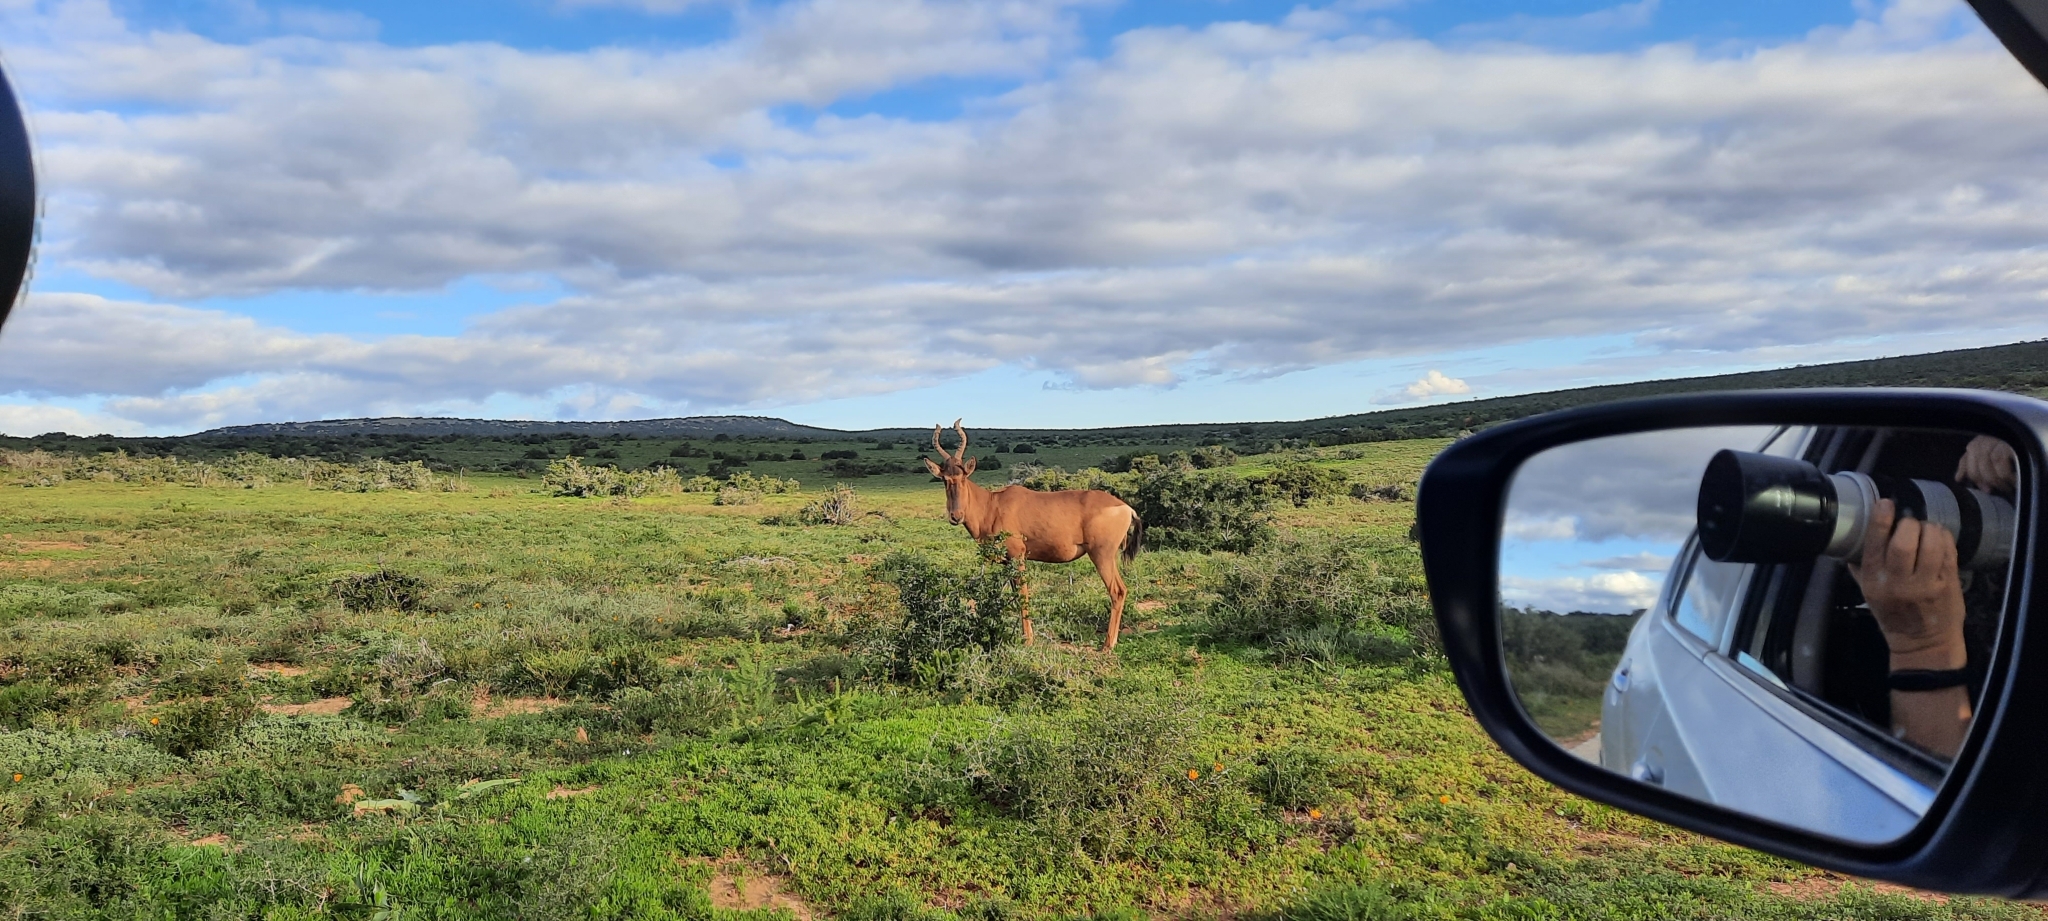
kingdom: Animalia
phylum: Chordata
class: Mammalia
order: Artiodactyla
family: Bovidae
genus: Alcelaphus
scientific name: Alcelaphus caama
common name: Red hartebeest
